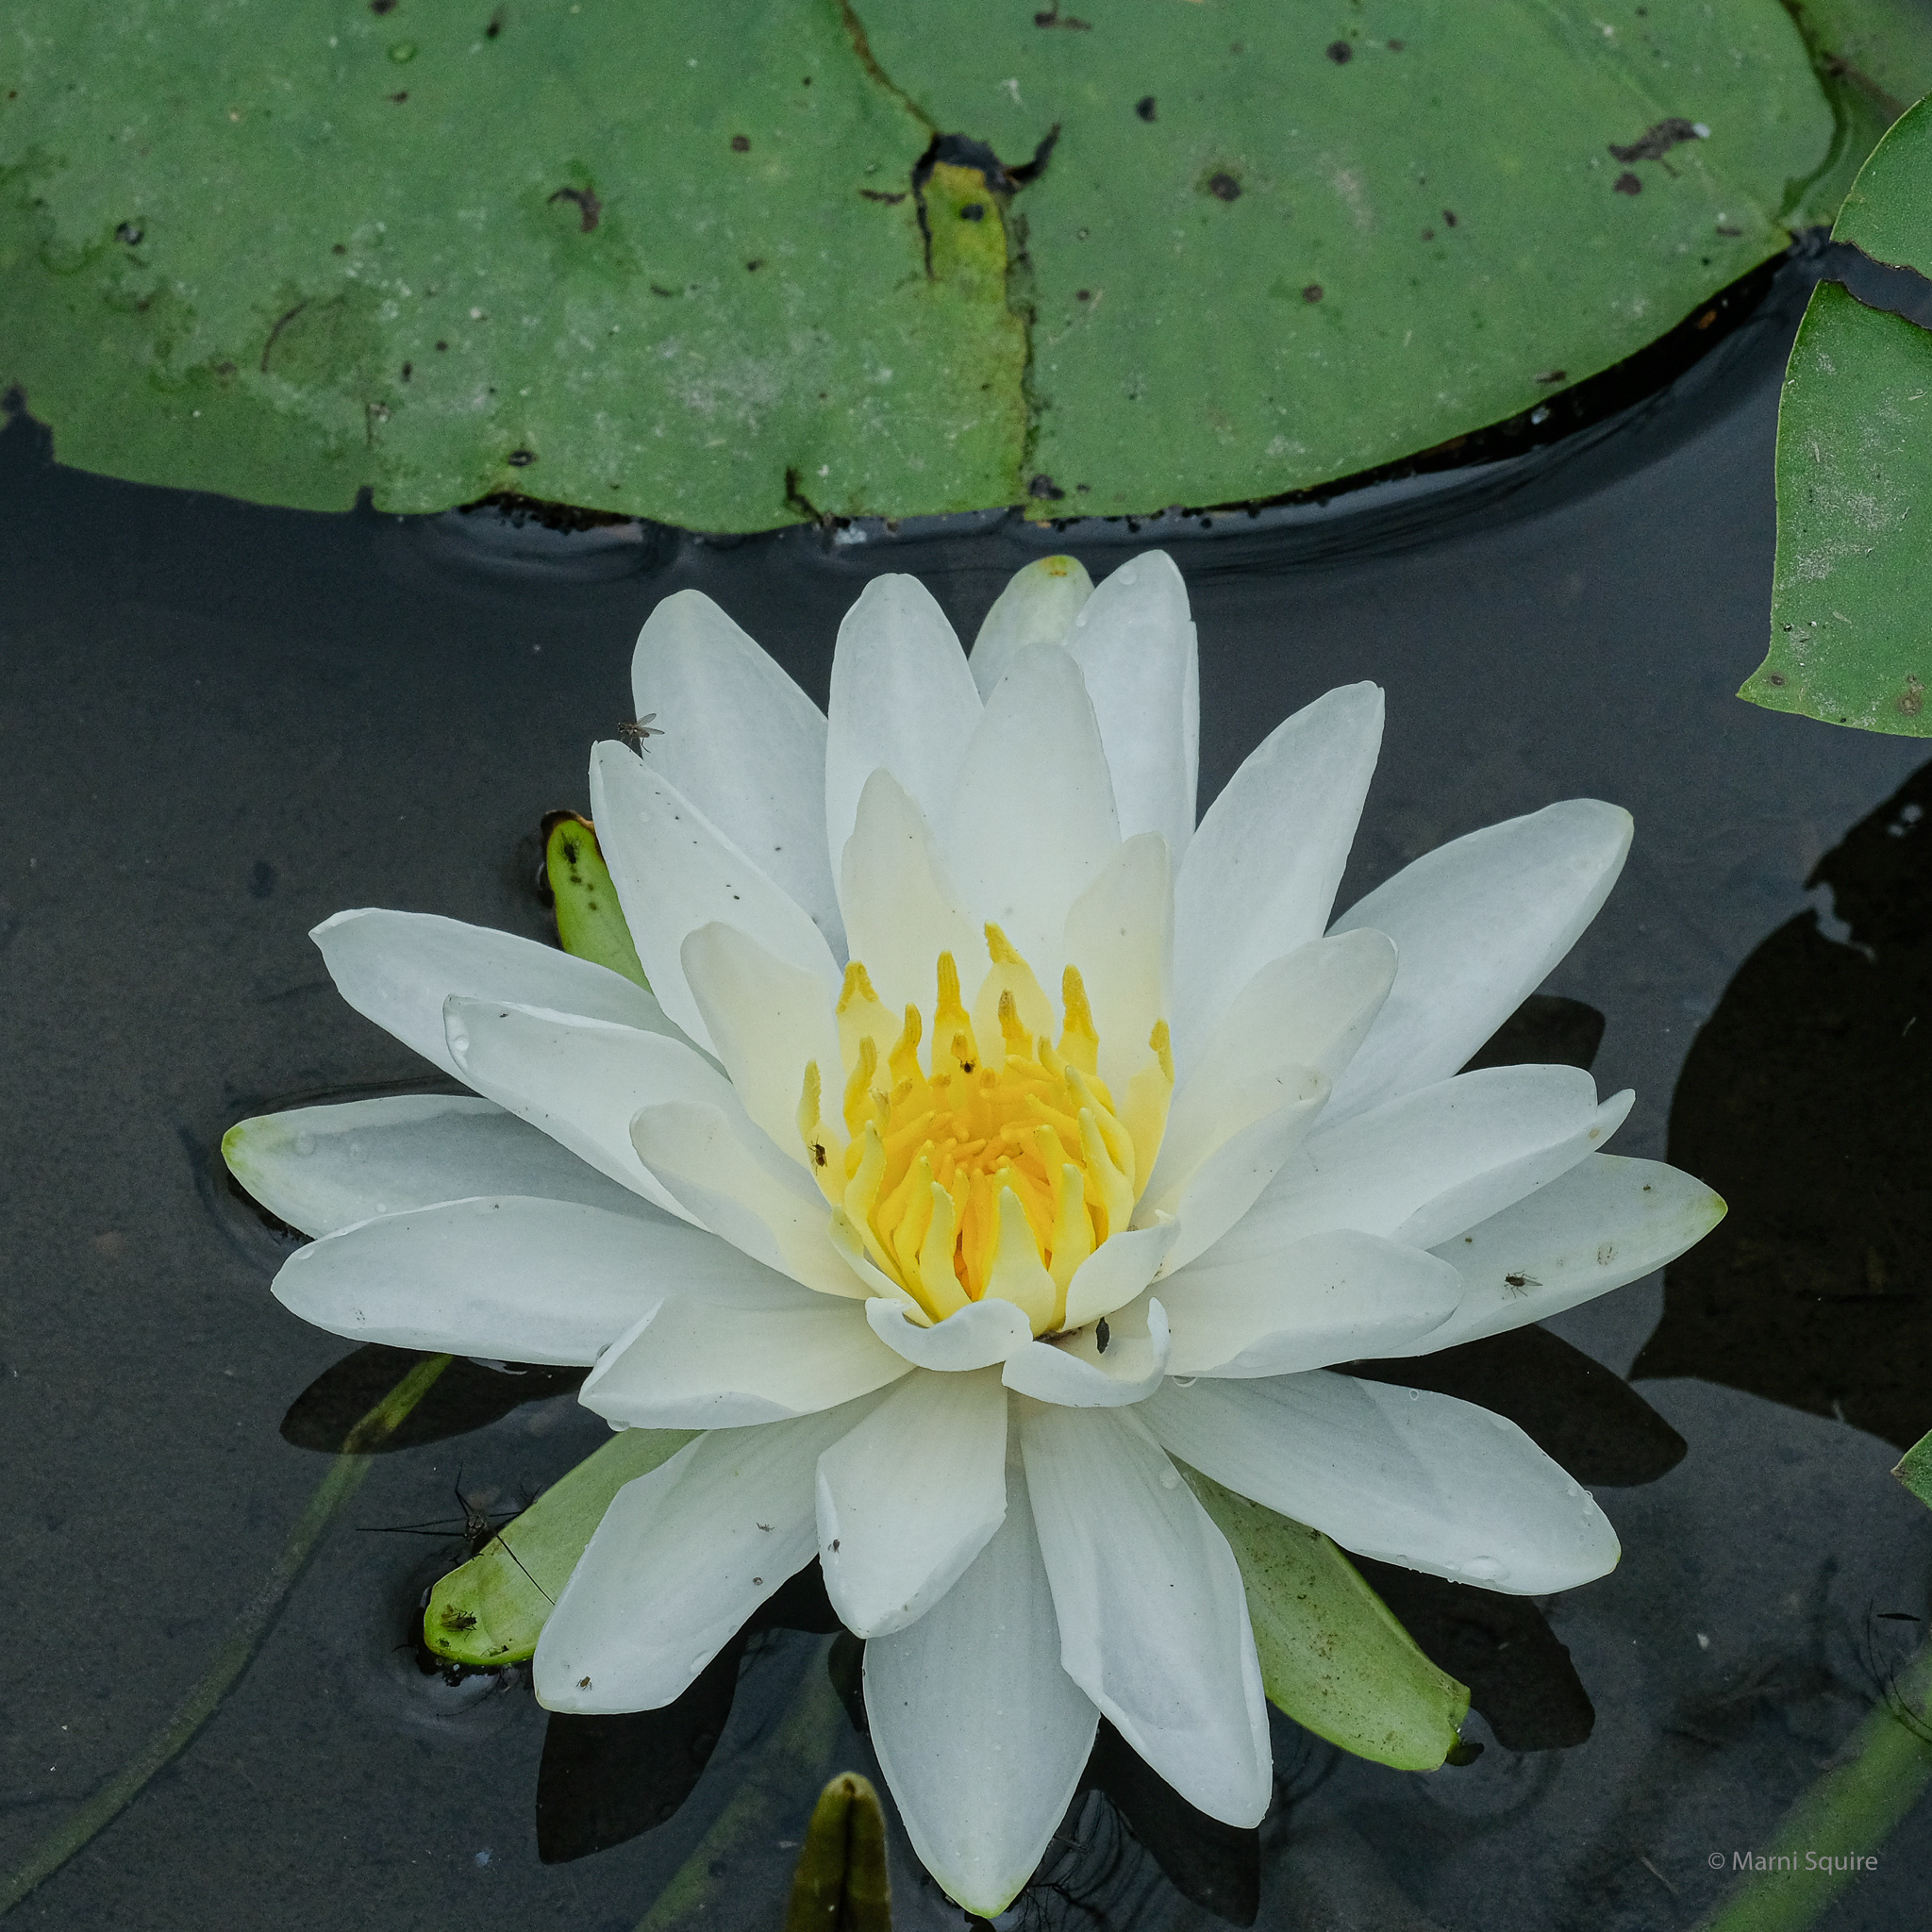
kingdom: Plantae
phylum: Tracheophyta
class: Magnoliopsida
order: Nymphaeales
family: Nymphaeaceae
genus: Nymphaea
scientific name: Nymphaea odorata
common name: Fragrant water-lily
